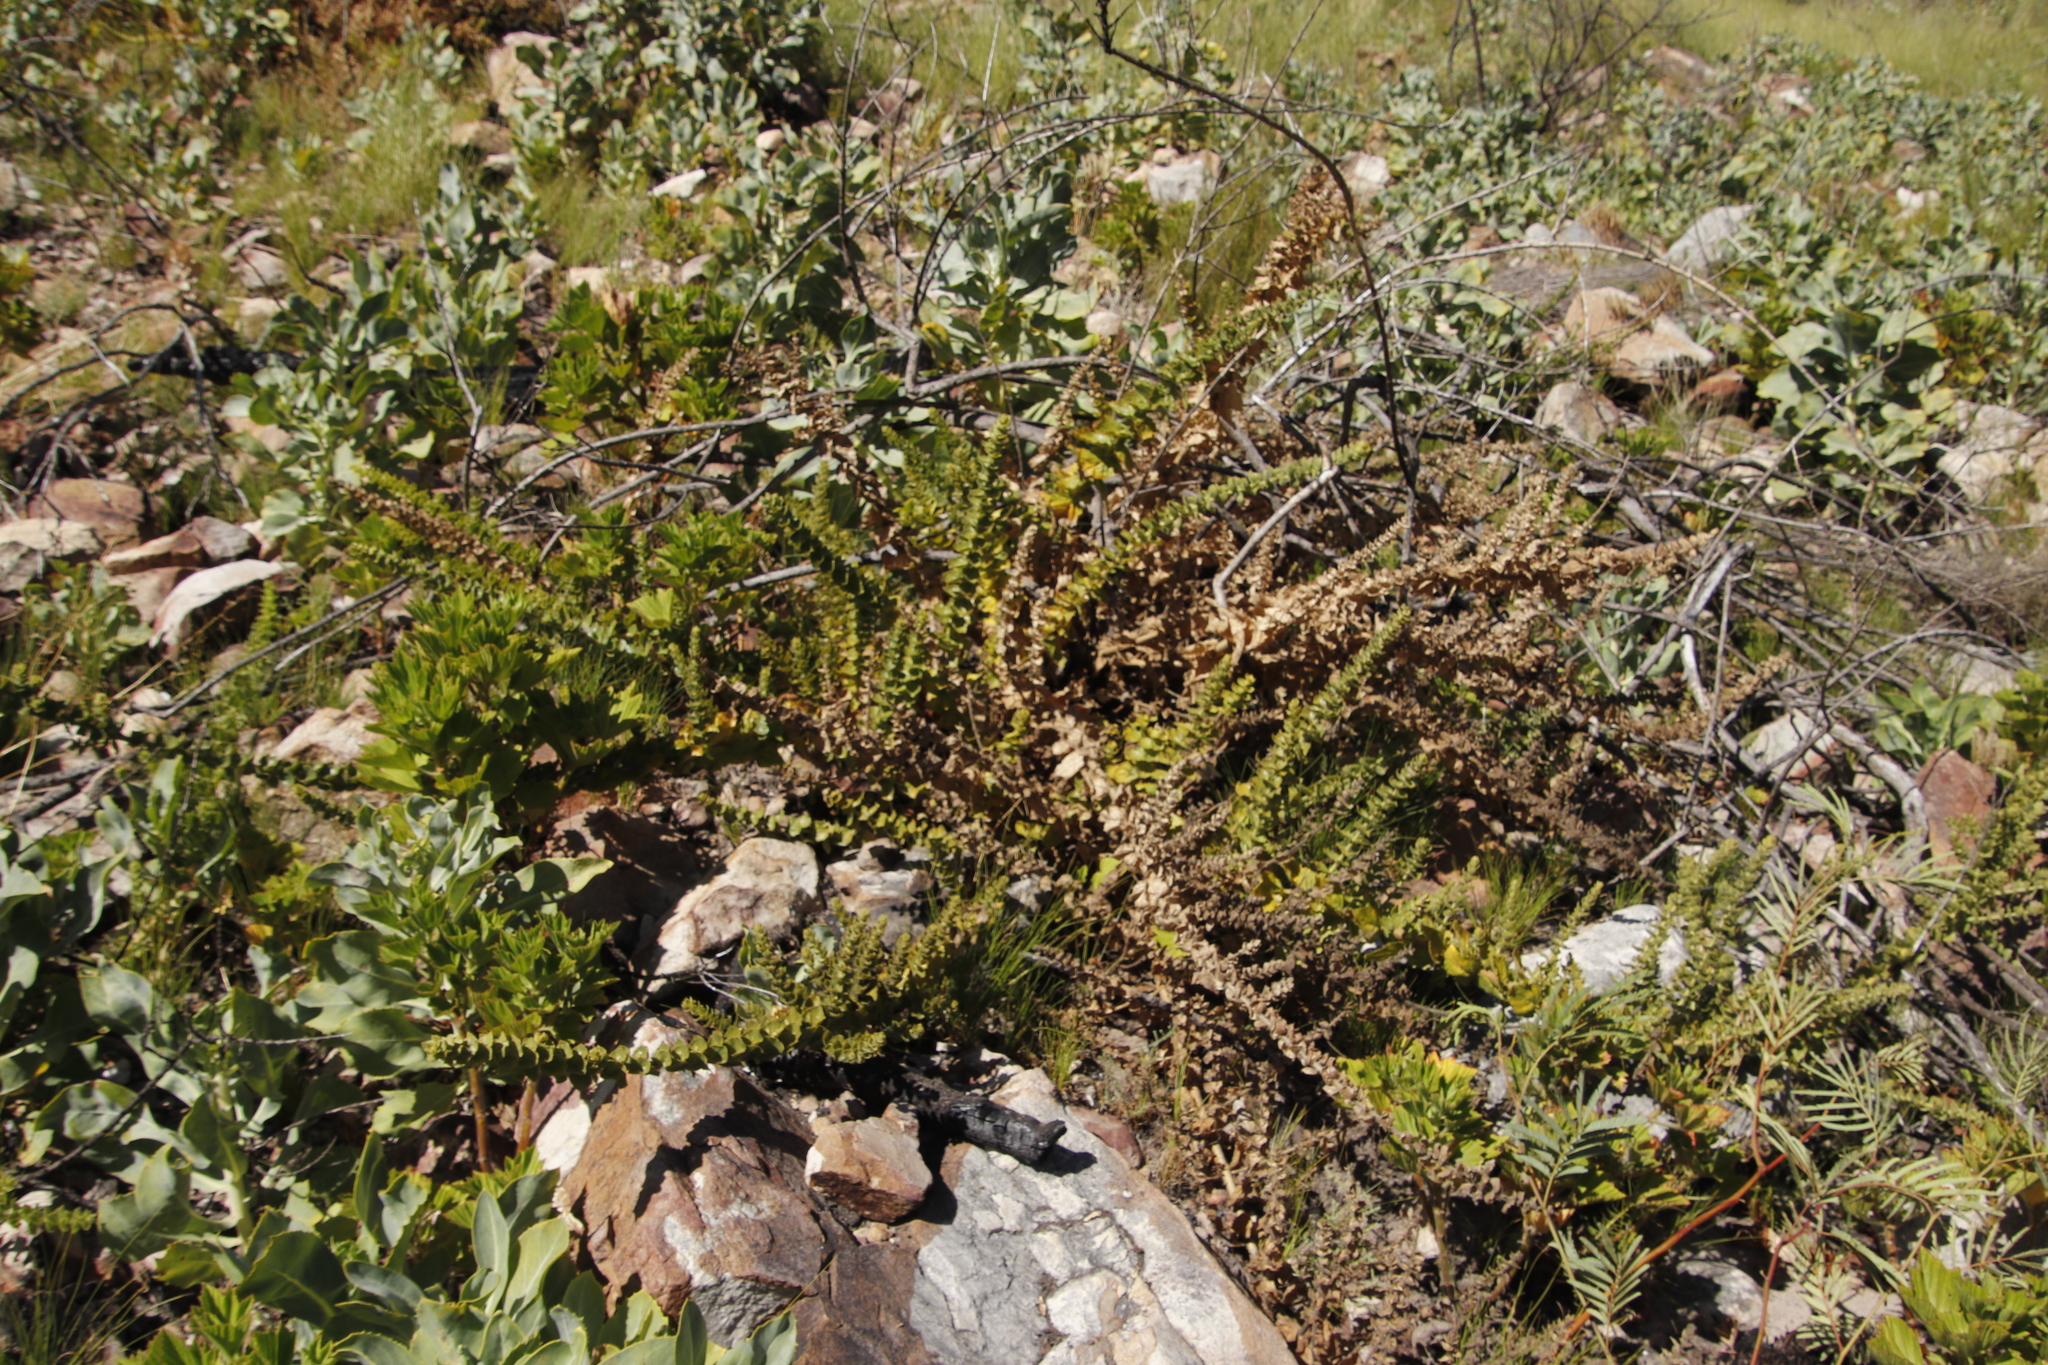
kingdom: Plantae
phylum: Tracheophyta
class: Magnoliopsida
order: Lamiales
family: Scrophulariaceae
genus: Oftia
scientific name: Oftia africana
